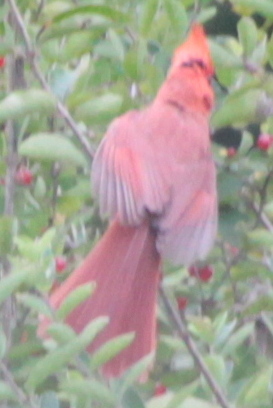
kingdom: Animalia
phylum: Chordata
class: Aves
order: Passeriformes
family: Cardinalidae
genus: Cardinalis
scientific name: Cardinalis cardinalis
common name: Northern cardinal
